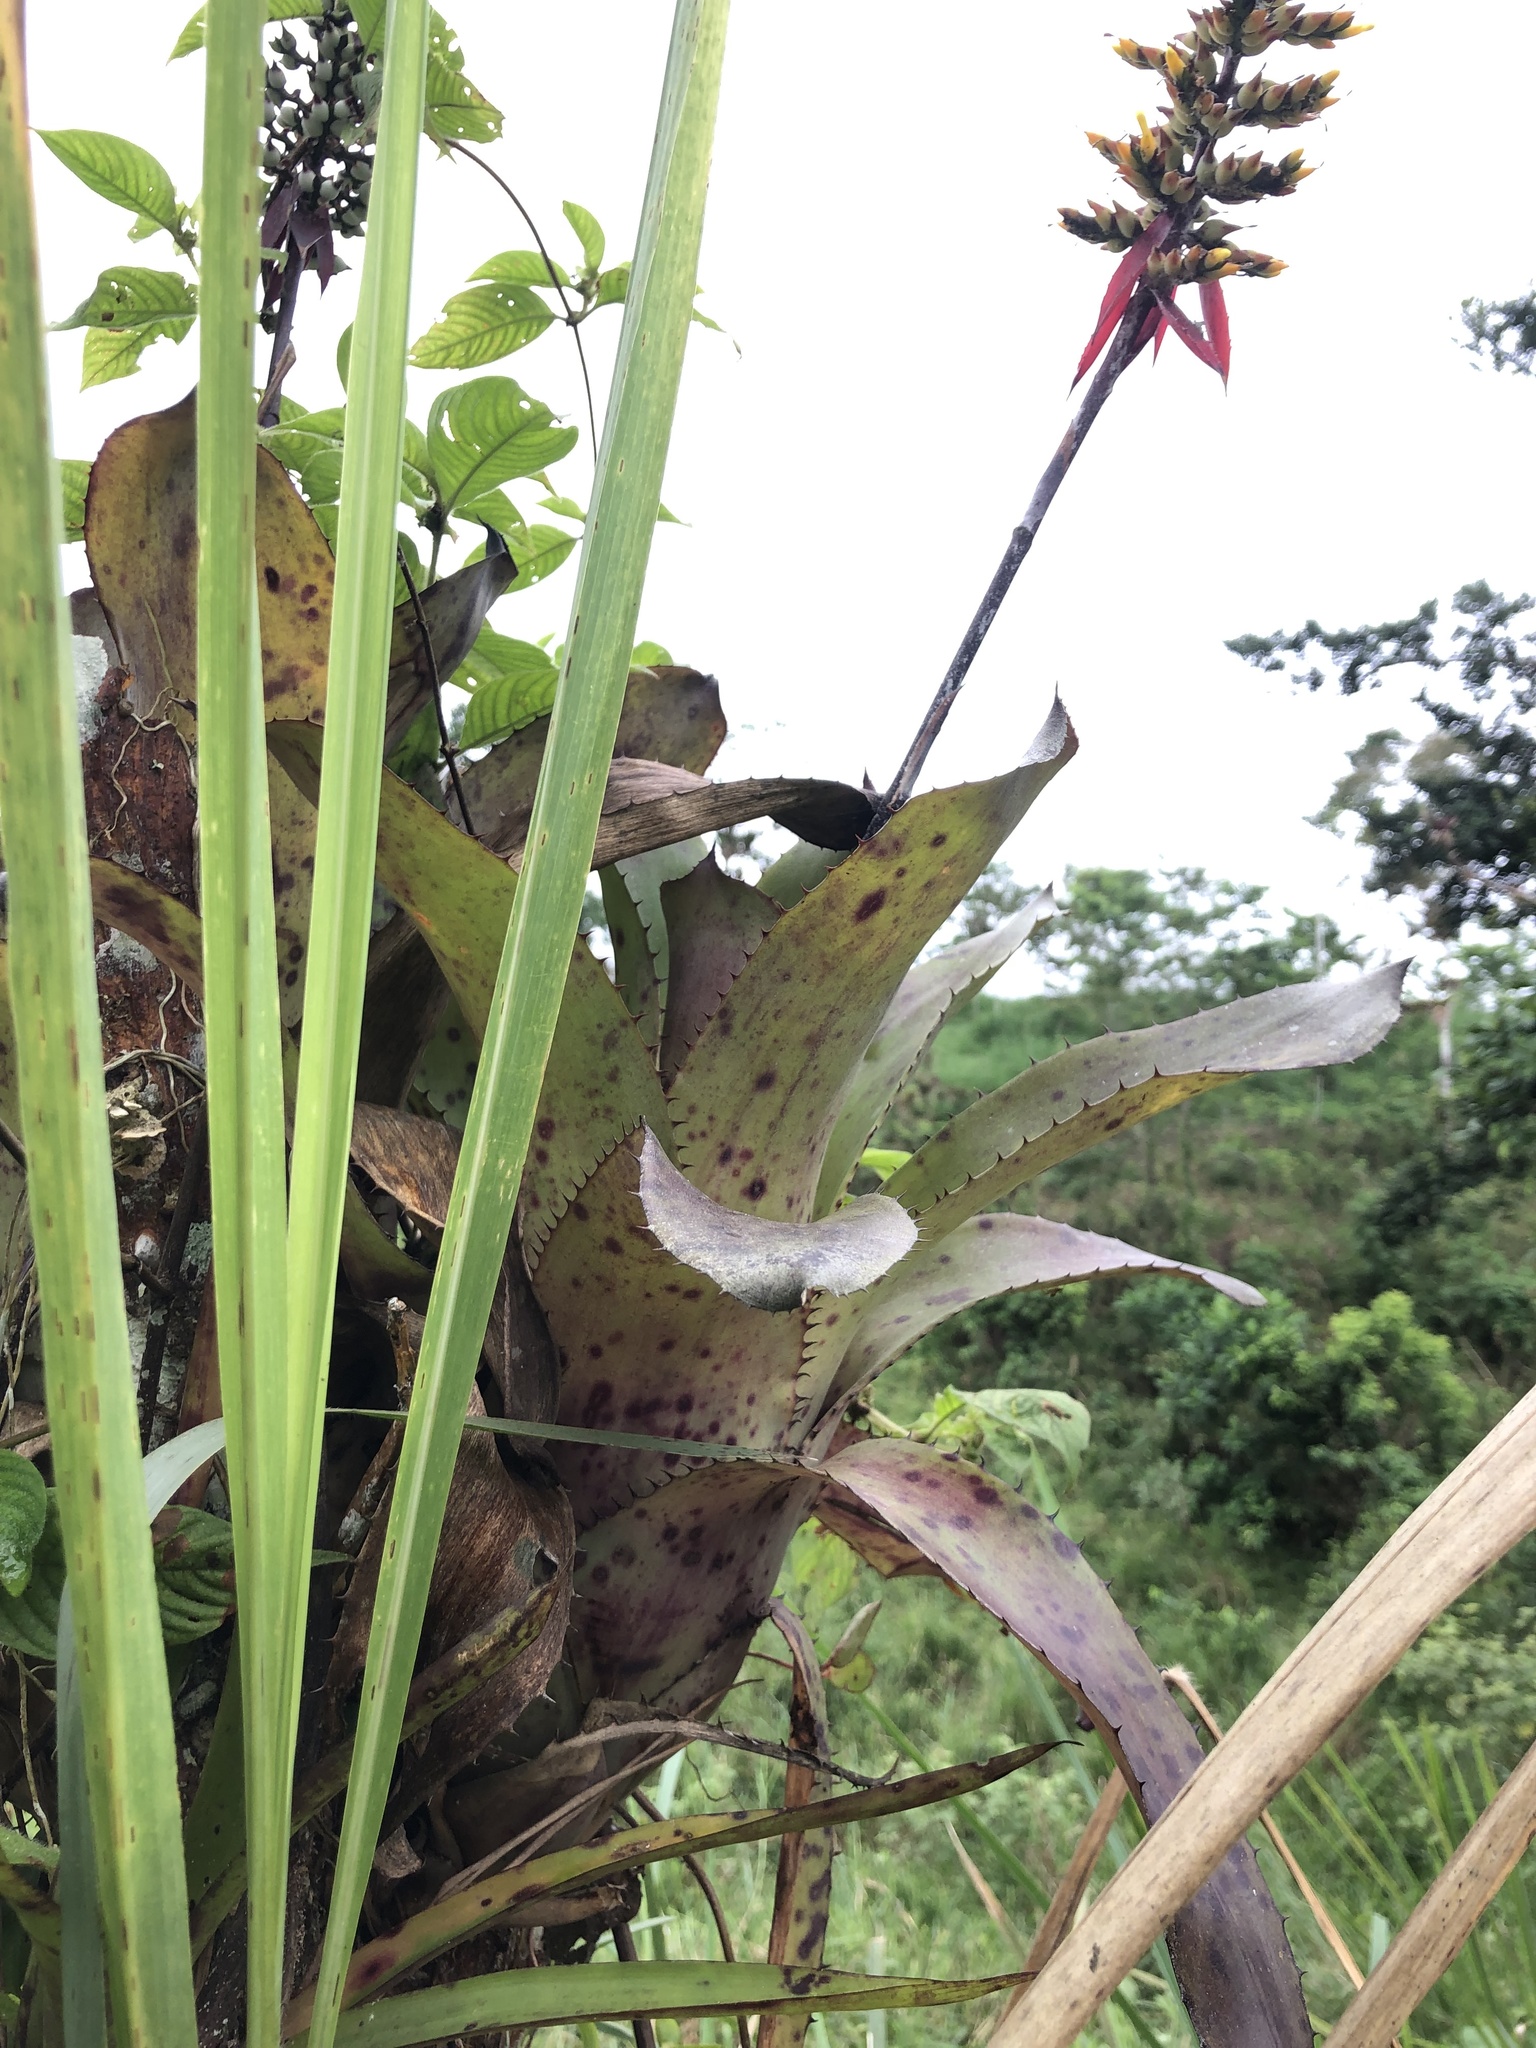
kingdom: Plantae
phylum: Tracheophyta
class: Liliopsida
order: Poales
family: Bromeliaceae
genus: Aechmea
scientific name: Aechmea angustifolia
